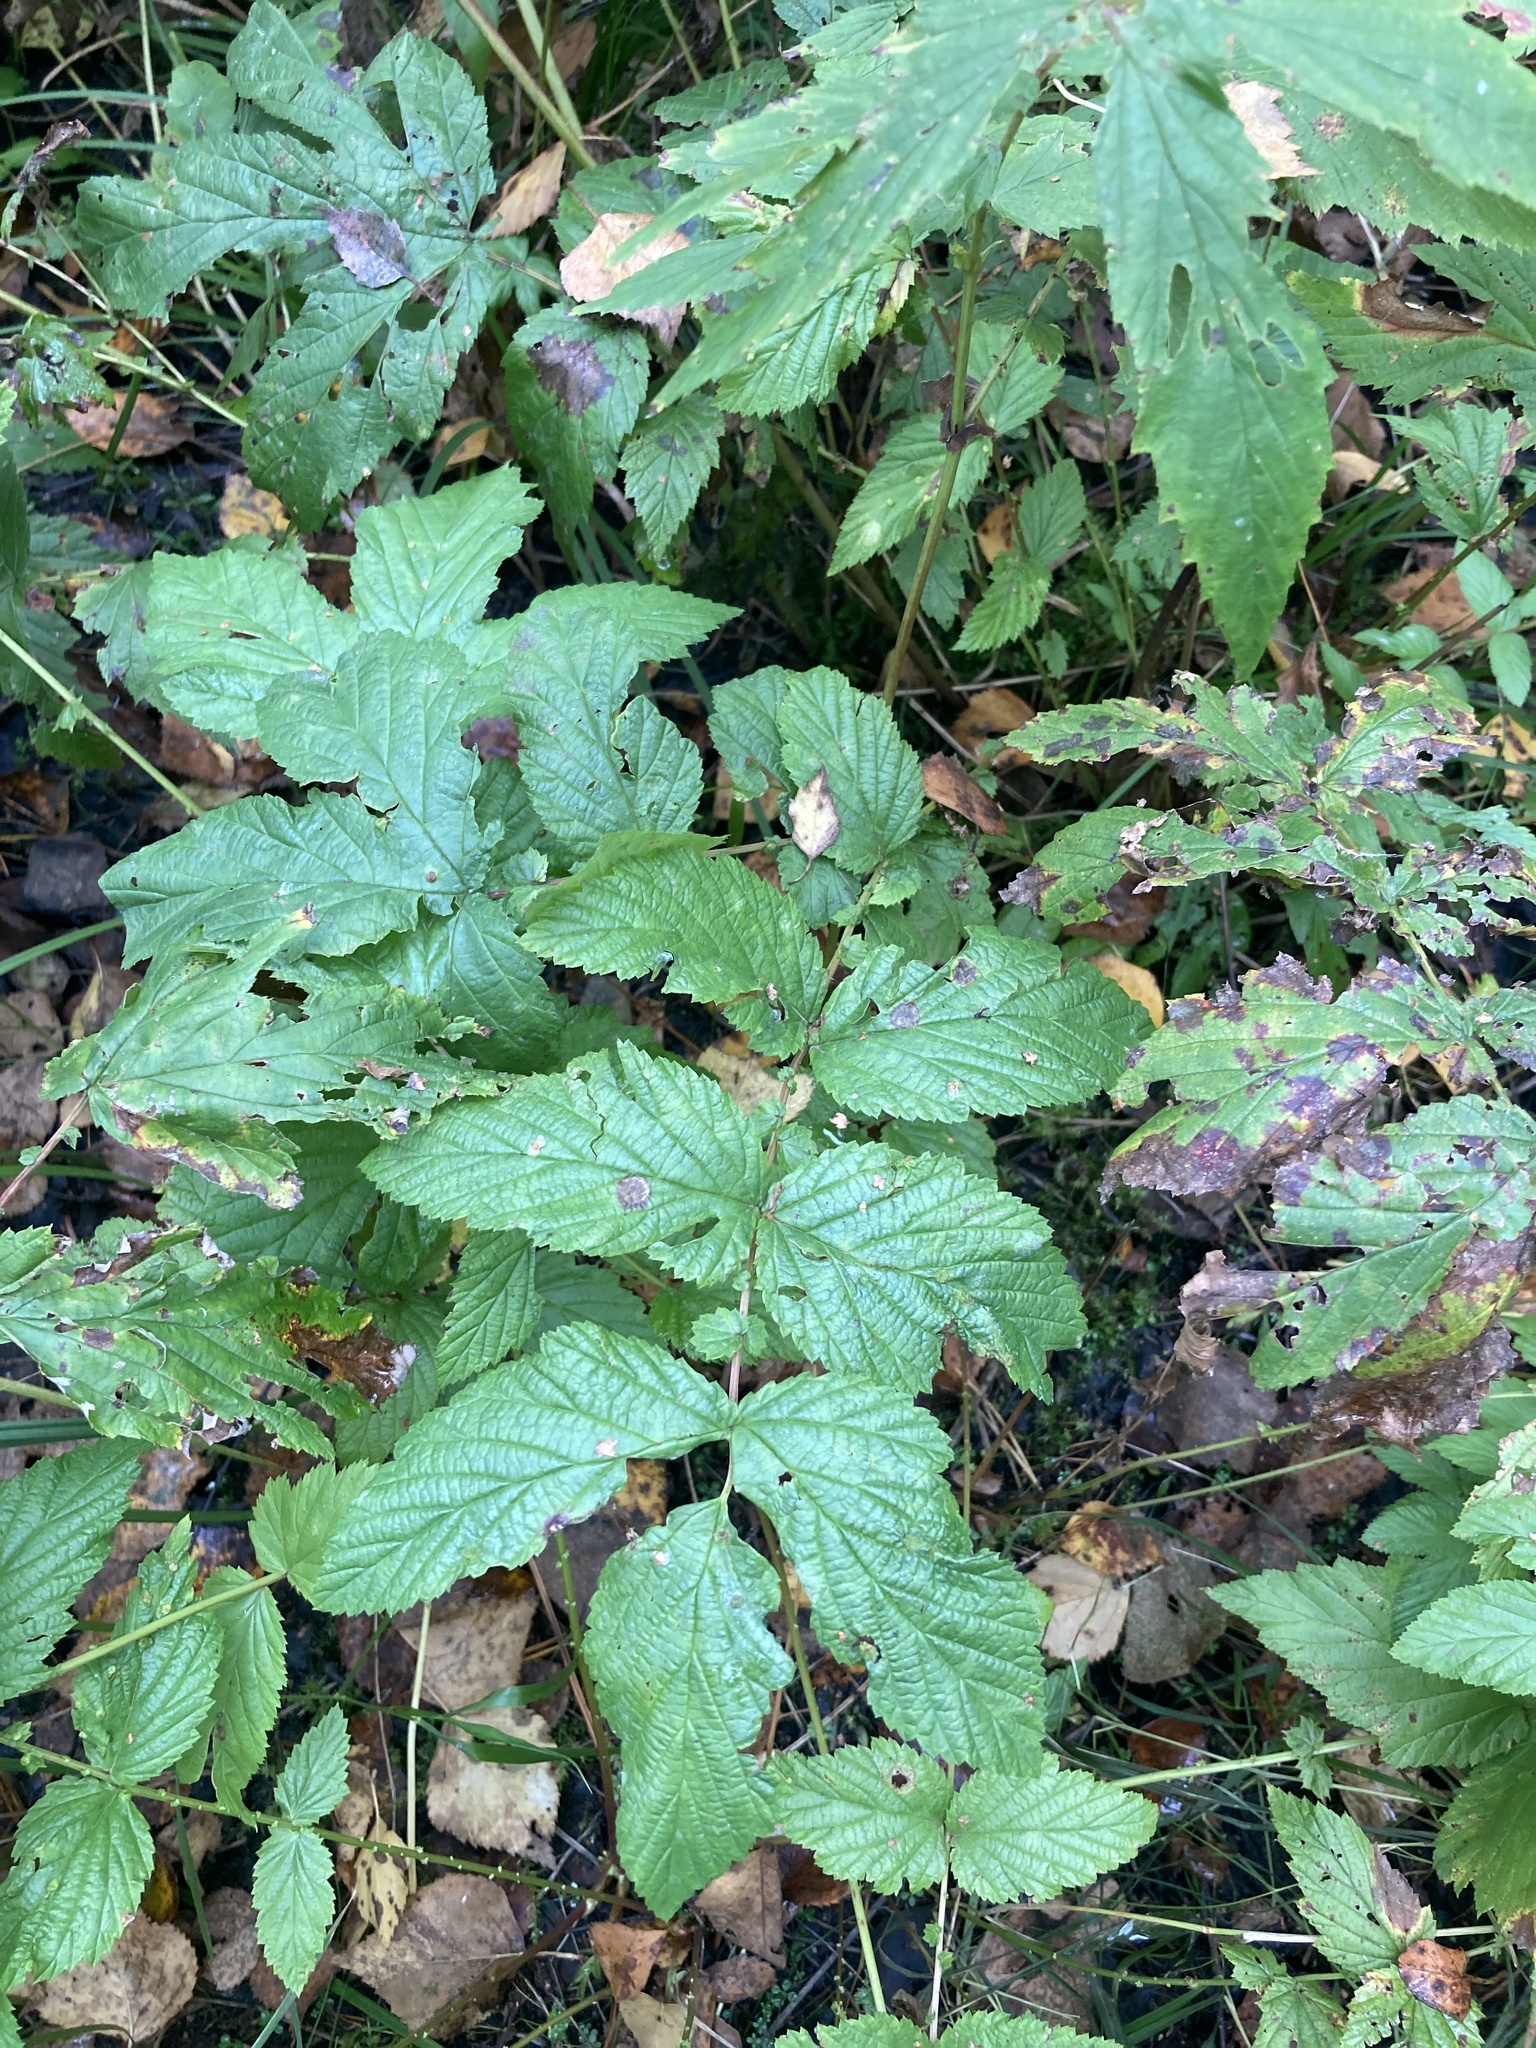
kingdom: Plantae
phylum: Tracheophyta
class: Magnoliopsida
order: Rosales
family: Rosaceae
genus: Filipendula
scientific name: Filipendula ulmaria
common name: Meadowsweet
